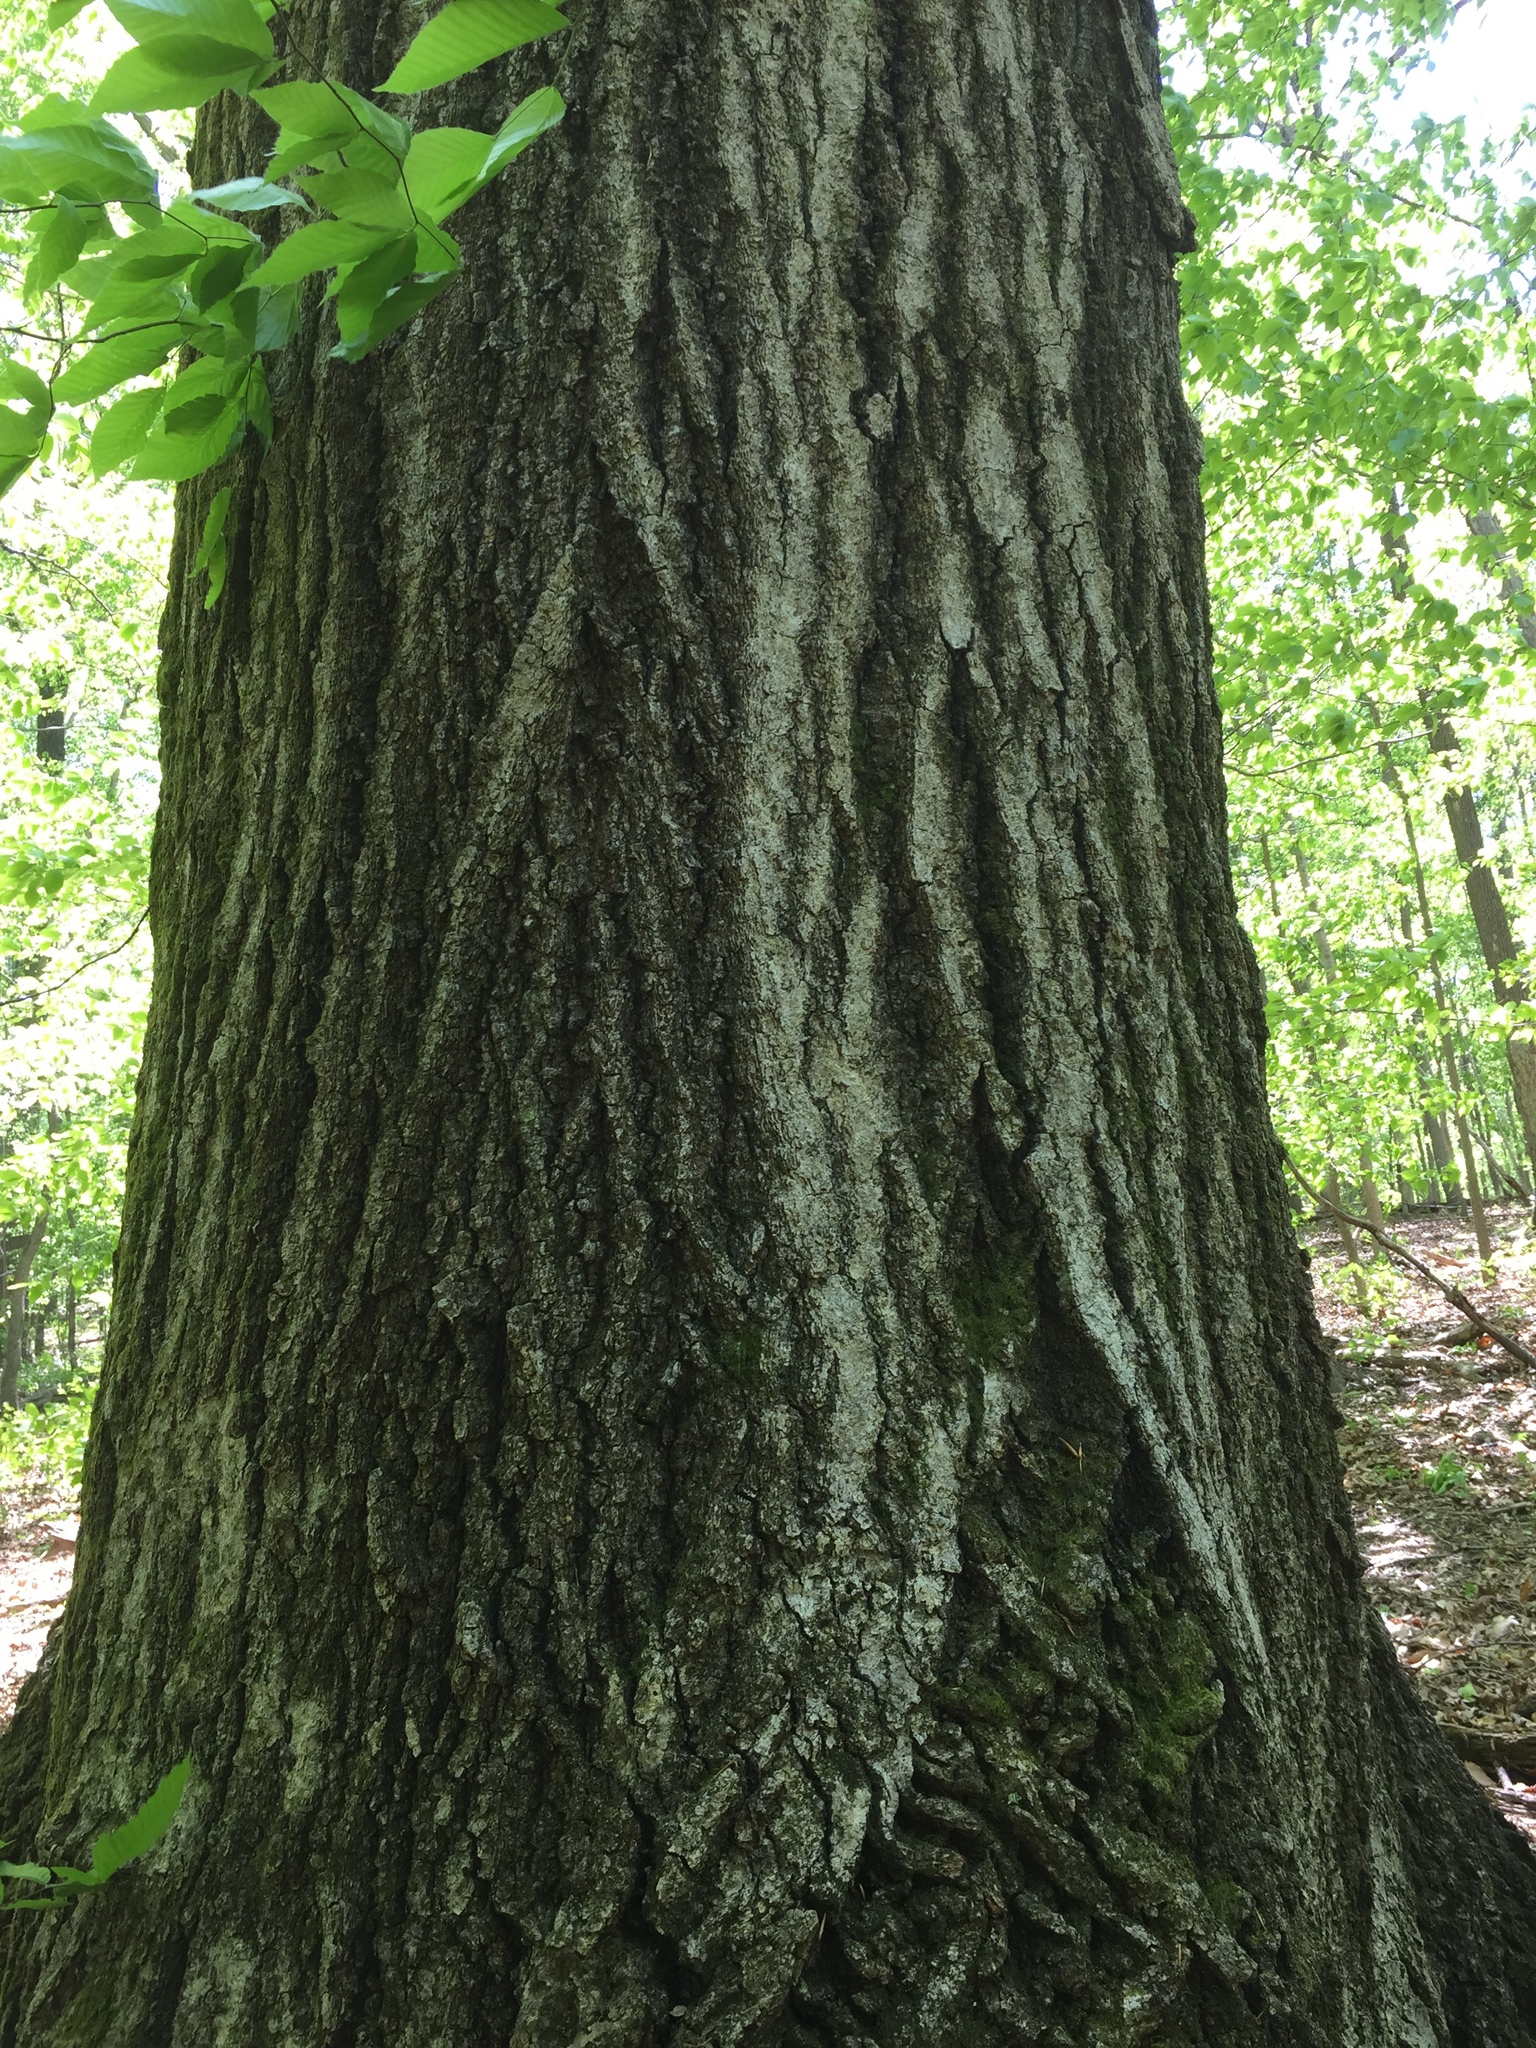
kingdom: Plantae
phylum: Tracheophyta
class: Magnoliopsida
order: Fagales
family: Fagaceae
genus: Quercus
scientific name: Quercus rubra
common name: Red oak
